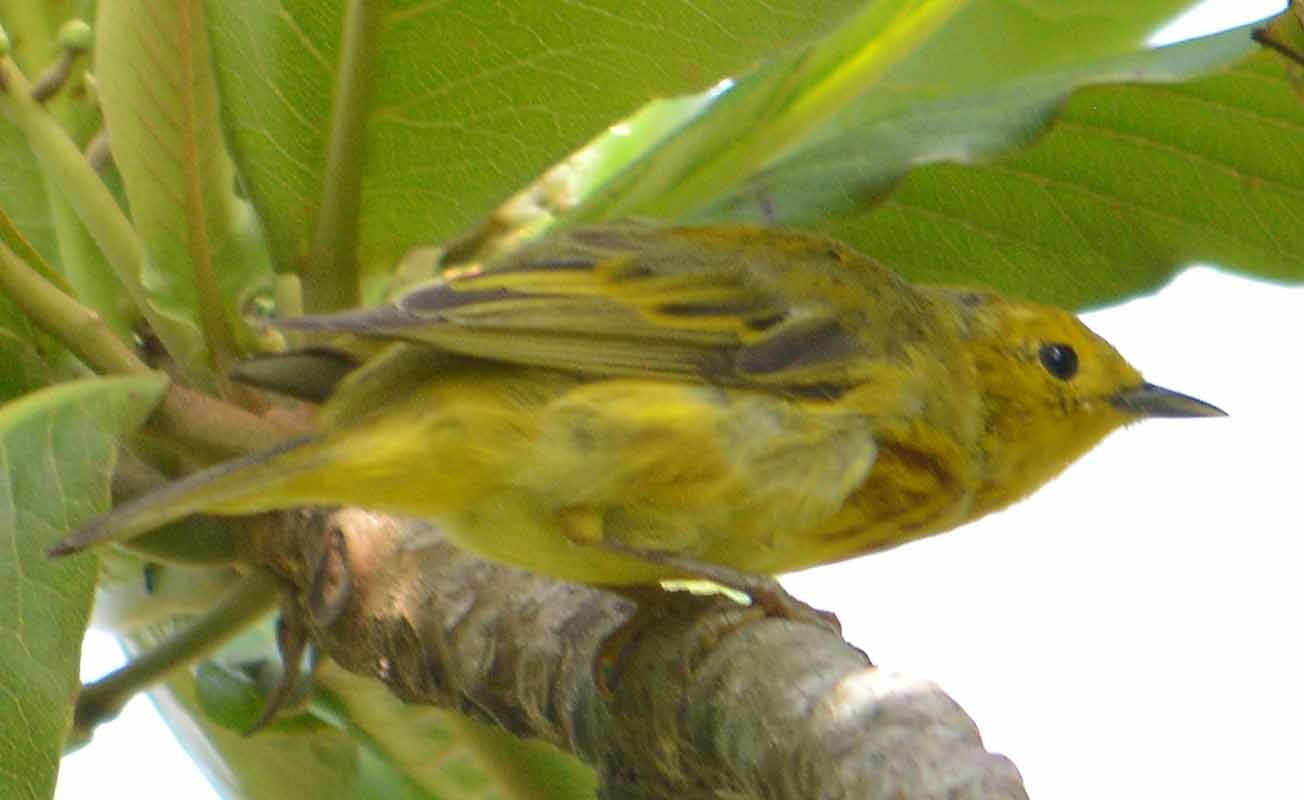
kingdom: Animalia
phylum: Chordata
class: Aves
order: Passeriformes
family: Parulidae
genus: Setophaga
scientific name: Setophaga petechia
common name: Yellow warbler
